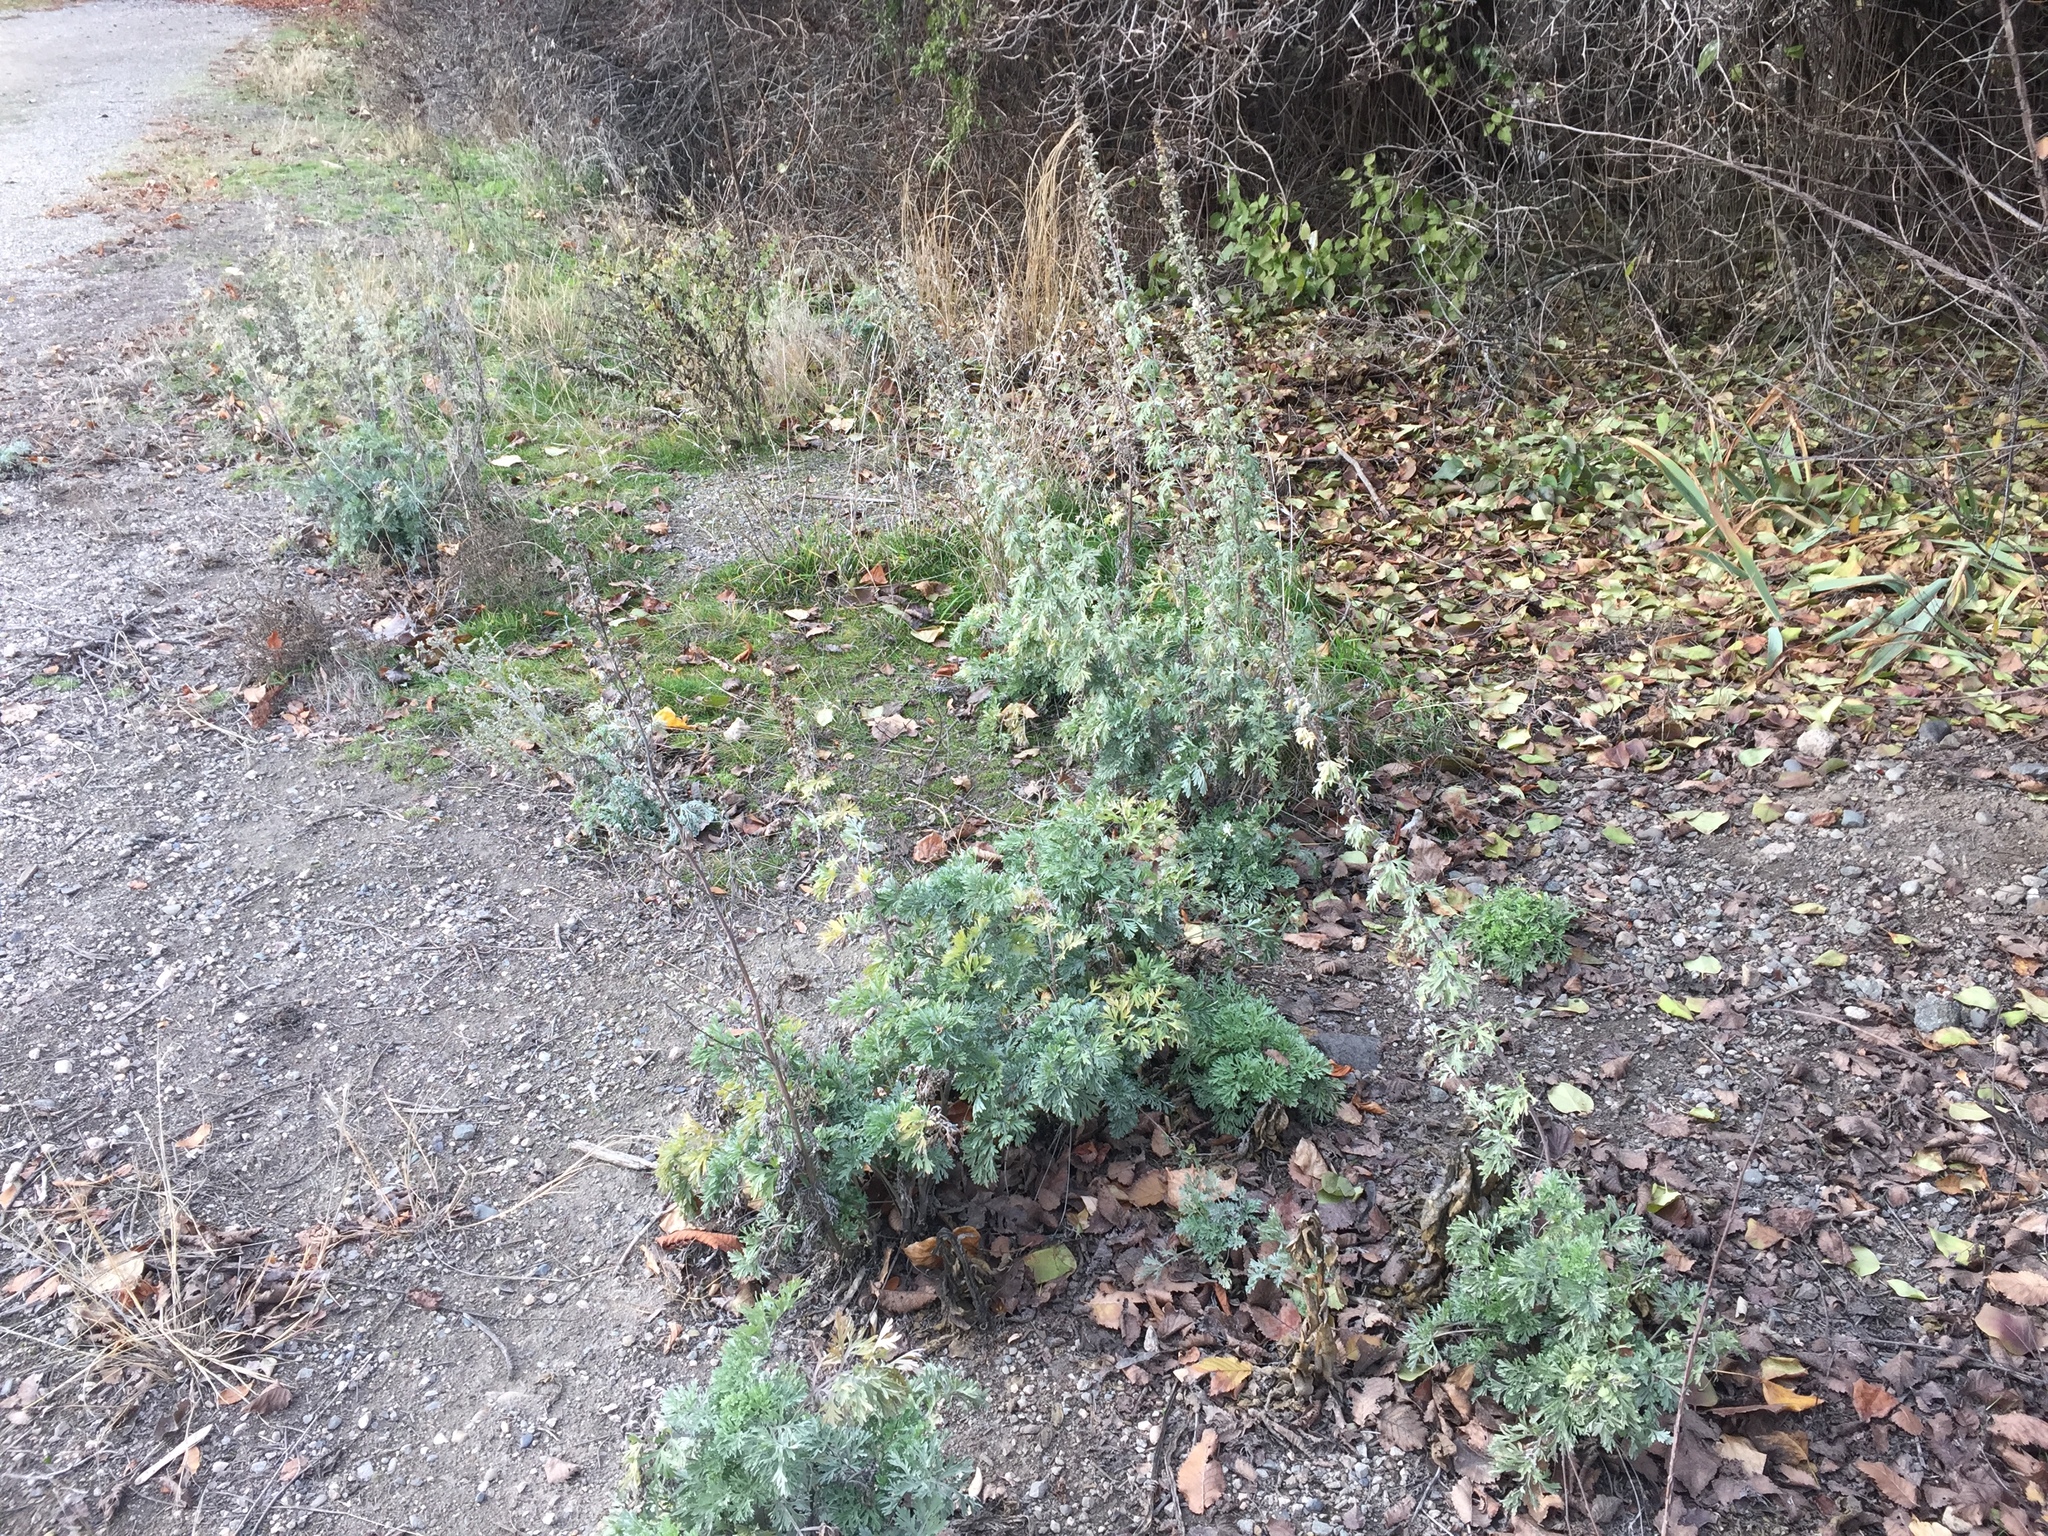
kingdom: Plantae
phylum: Tracheophyta
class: Magnoliopsida
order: Asterales
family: Asteraceae
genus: Artemisia
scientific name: Artemisia absinthium
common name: Wormwood
